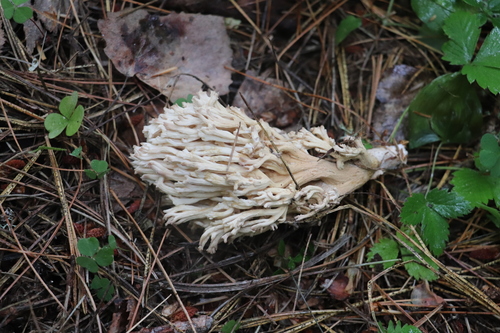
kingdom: Fungi
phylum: Basidiomycota
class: Agaricomycetes
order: Gomphales
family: Gomphaceae
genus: Ramaria
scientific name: Ramaria
